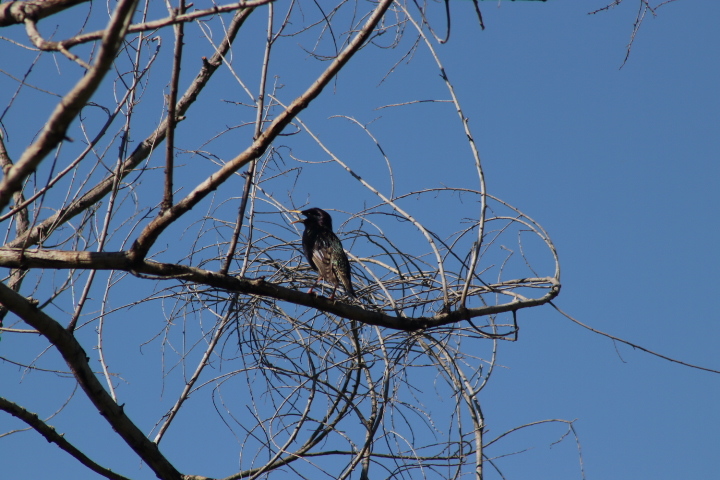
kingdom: Animalia
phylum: Chordata
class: Aves
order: Passeriformes
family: Sturnidae
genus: Sturnus
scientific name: Sturnus vulgaris
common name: Common starling
